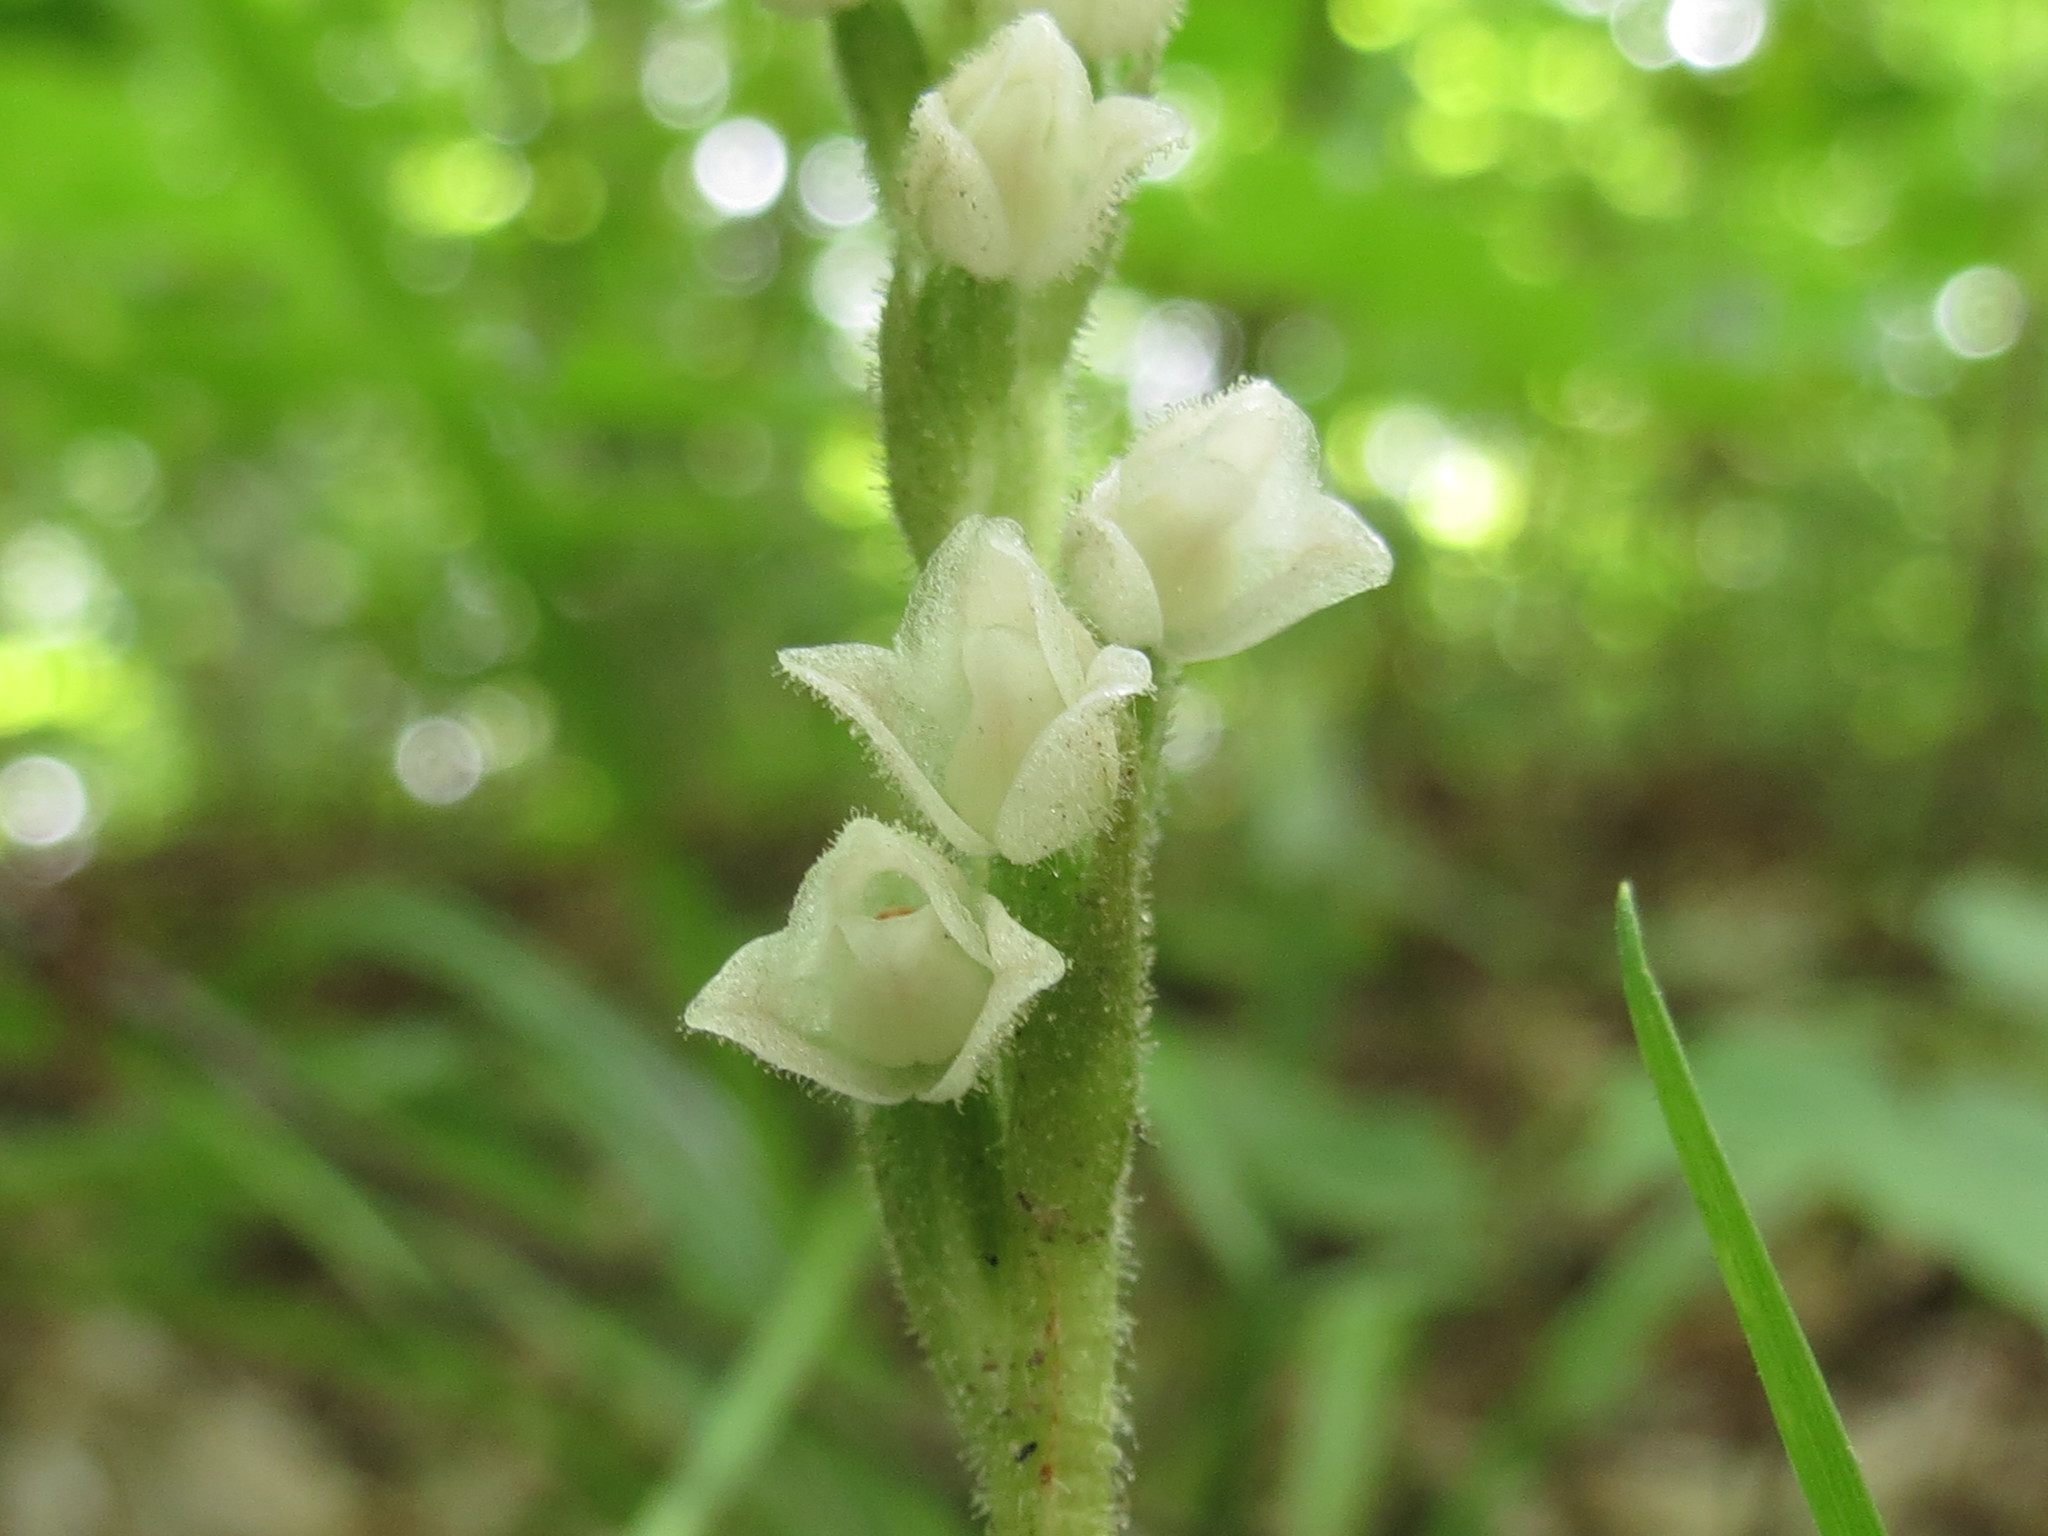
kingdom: Plantae
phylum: Tracheophyta
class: Liliopsida
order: Asparagales
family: Orchidaceae
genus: Goodyera
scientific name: Goodyera tesselata
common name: Checkered rattlesnake-plantain
